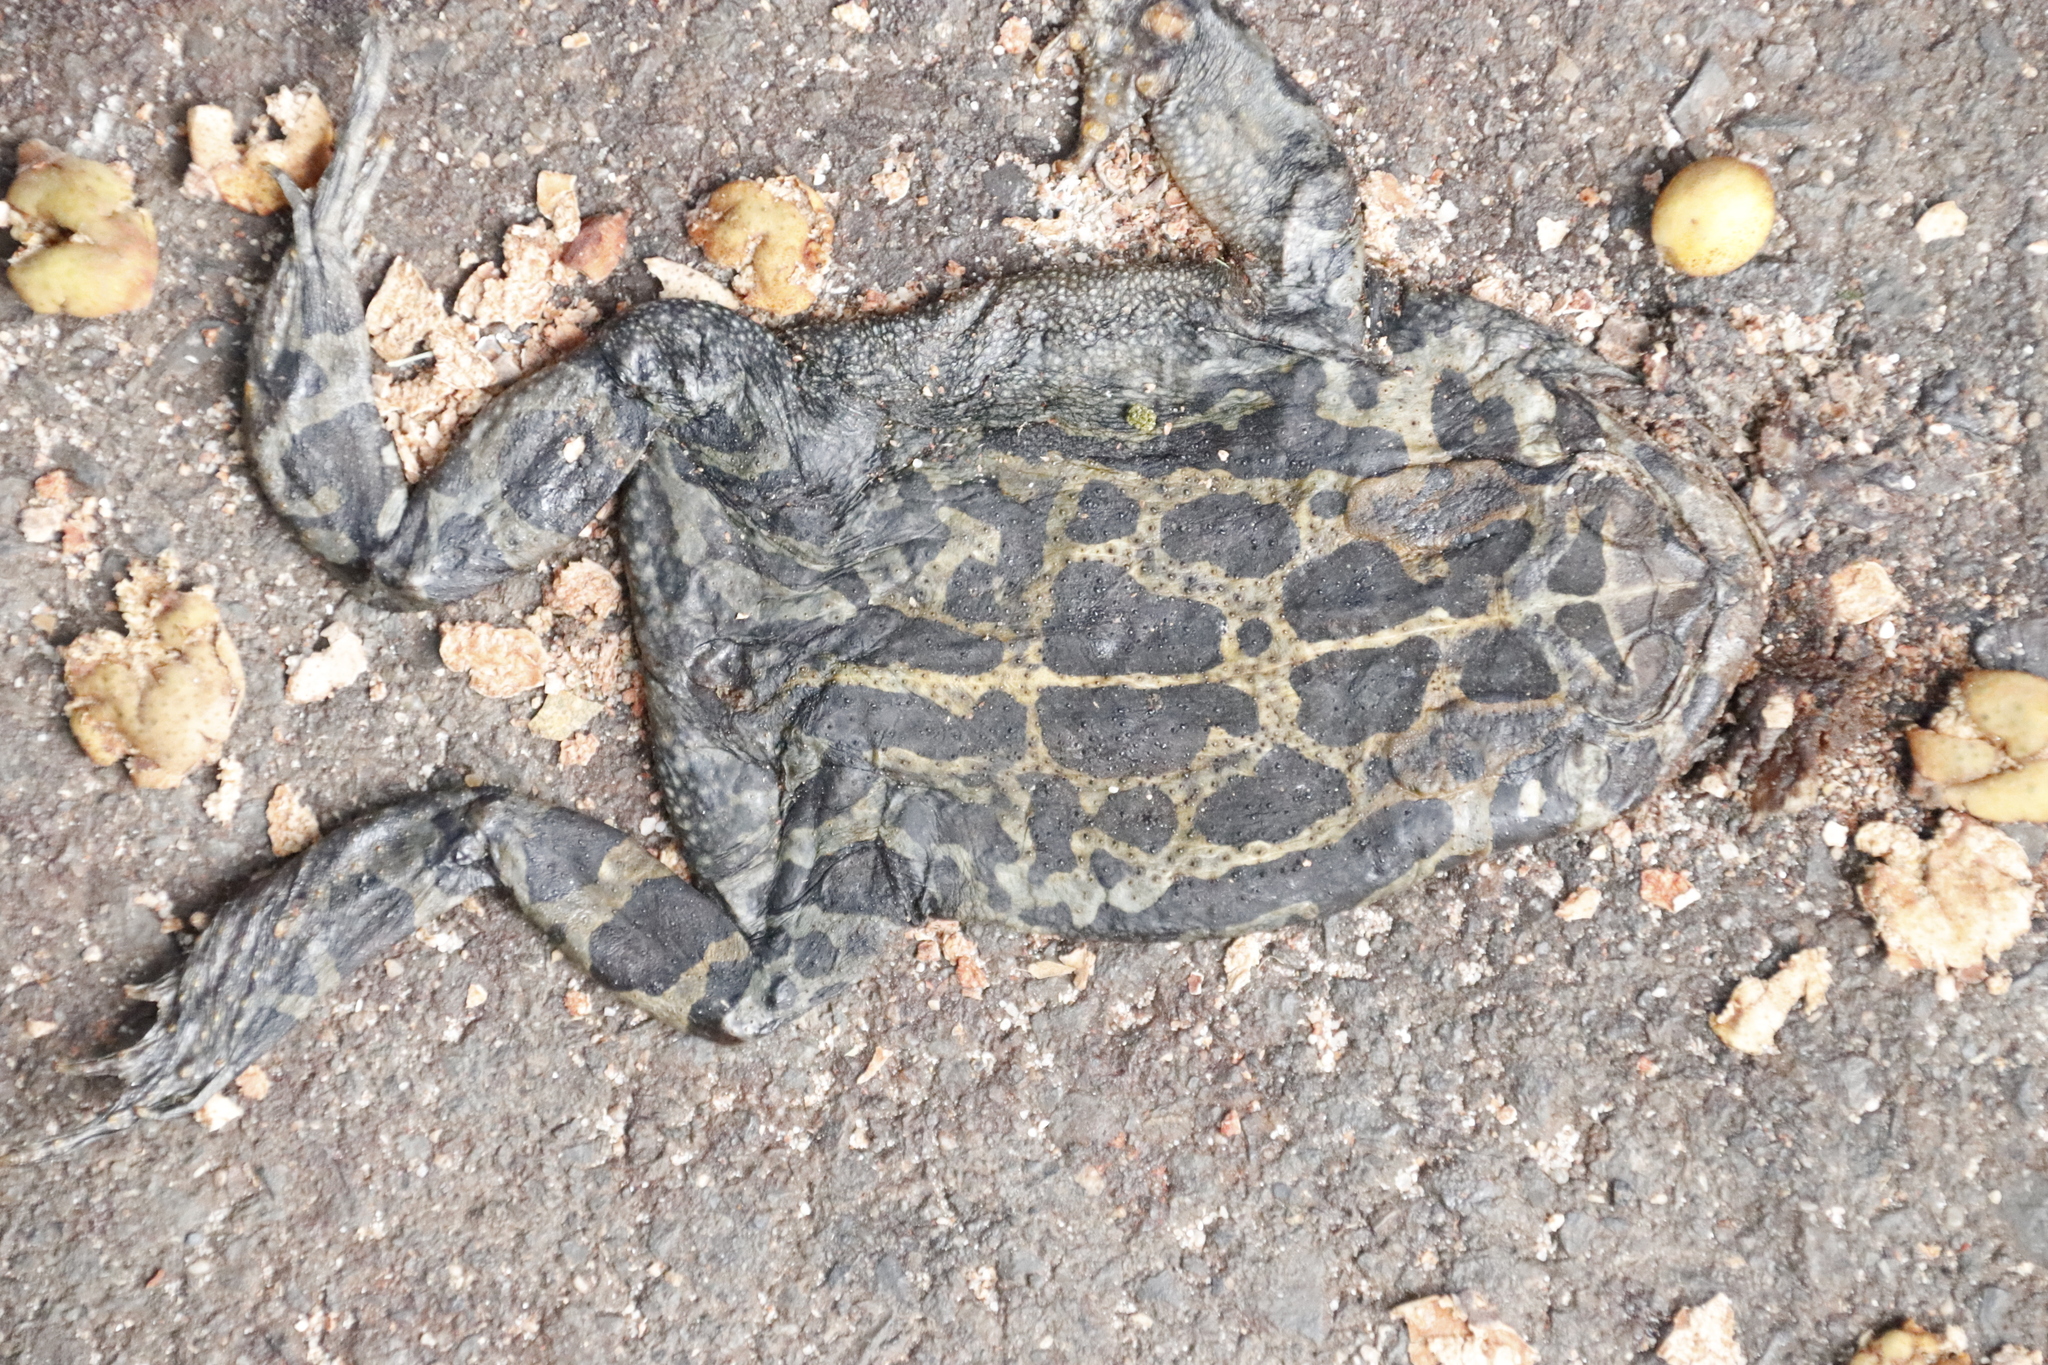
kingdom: Animalia
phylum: Chordata
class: Amphibia
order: Anura
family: Bufonidae
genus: Sclerophrys
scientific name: Sclerophrys pantherina
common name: Panther toad
